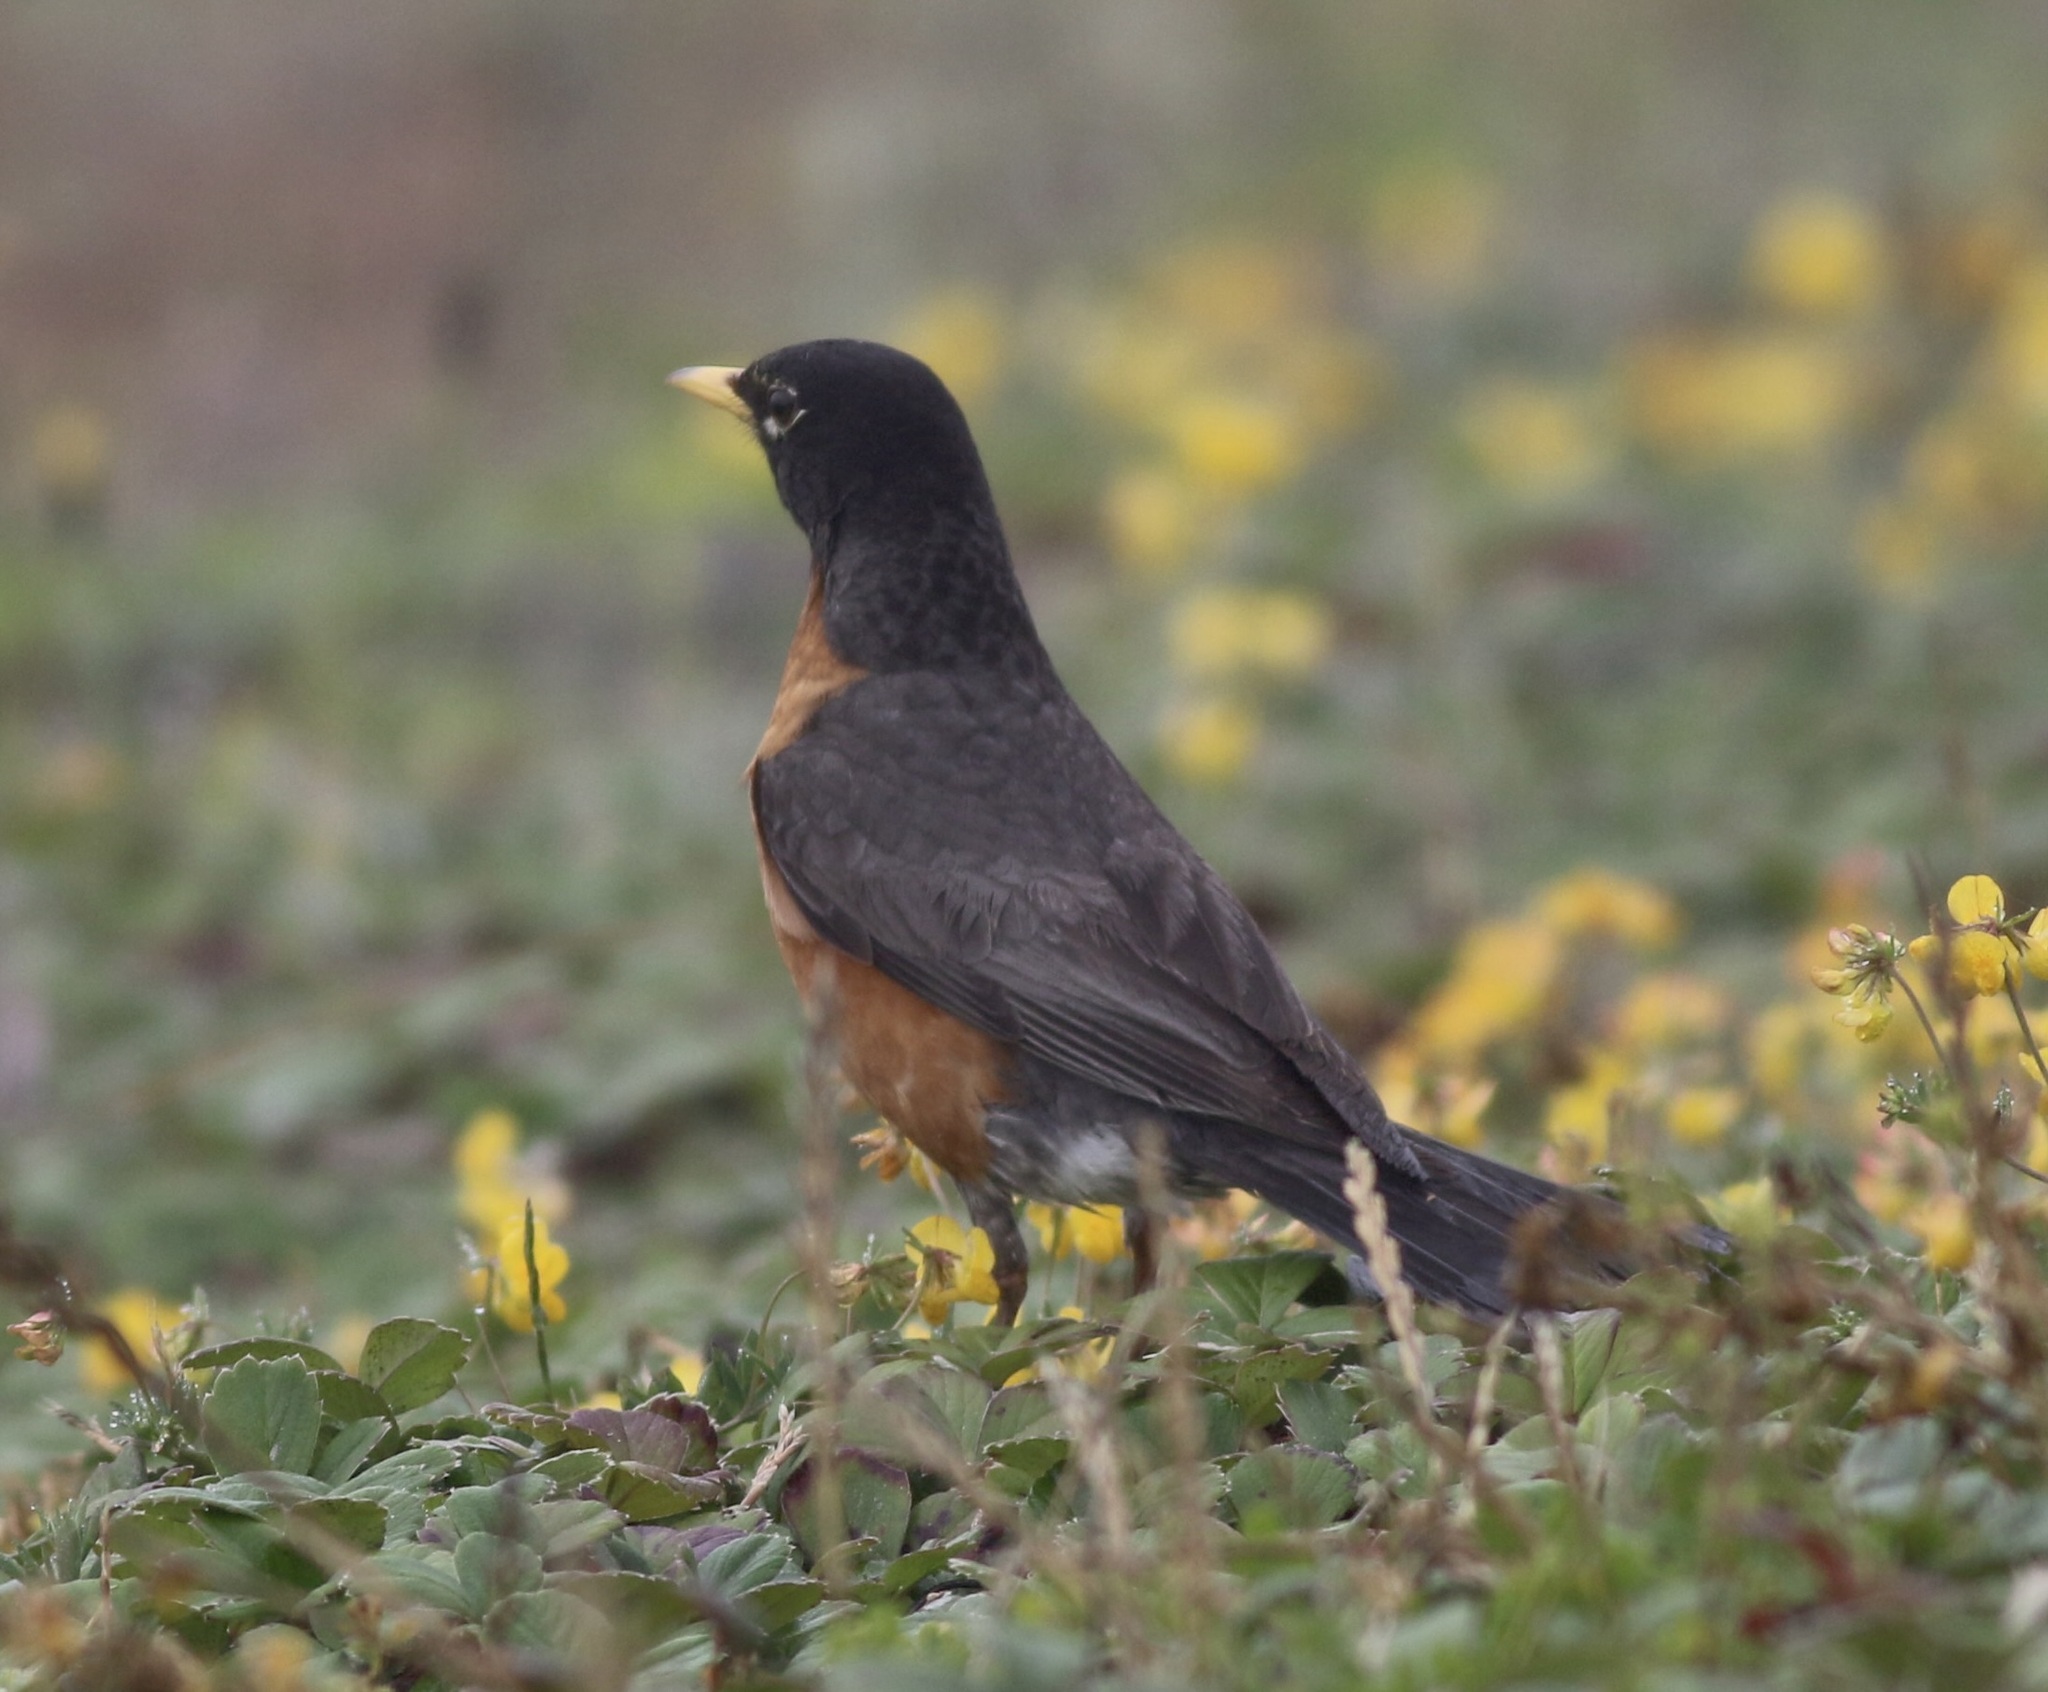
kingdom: Animalia
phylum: Chordata
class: Aves
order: Passeriformes
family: Turdidae
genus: Turdus
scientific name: Turdus migratorius
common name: American robin
